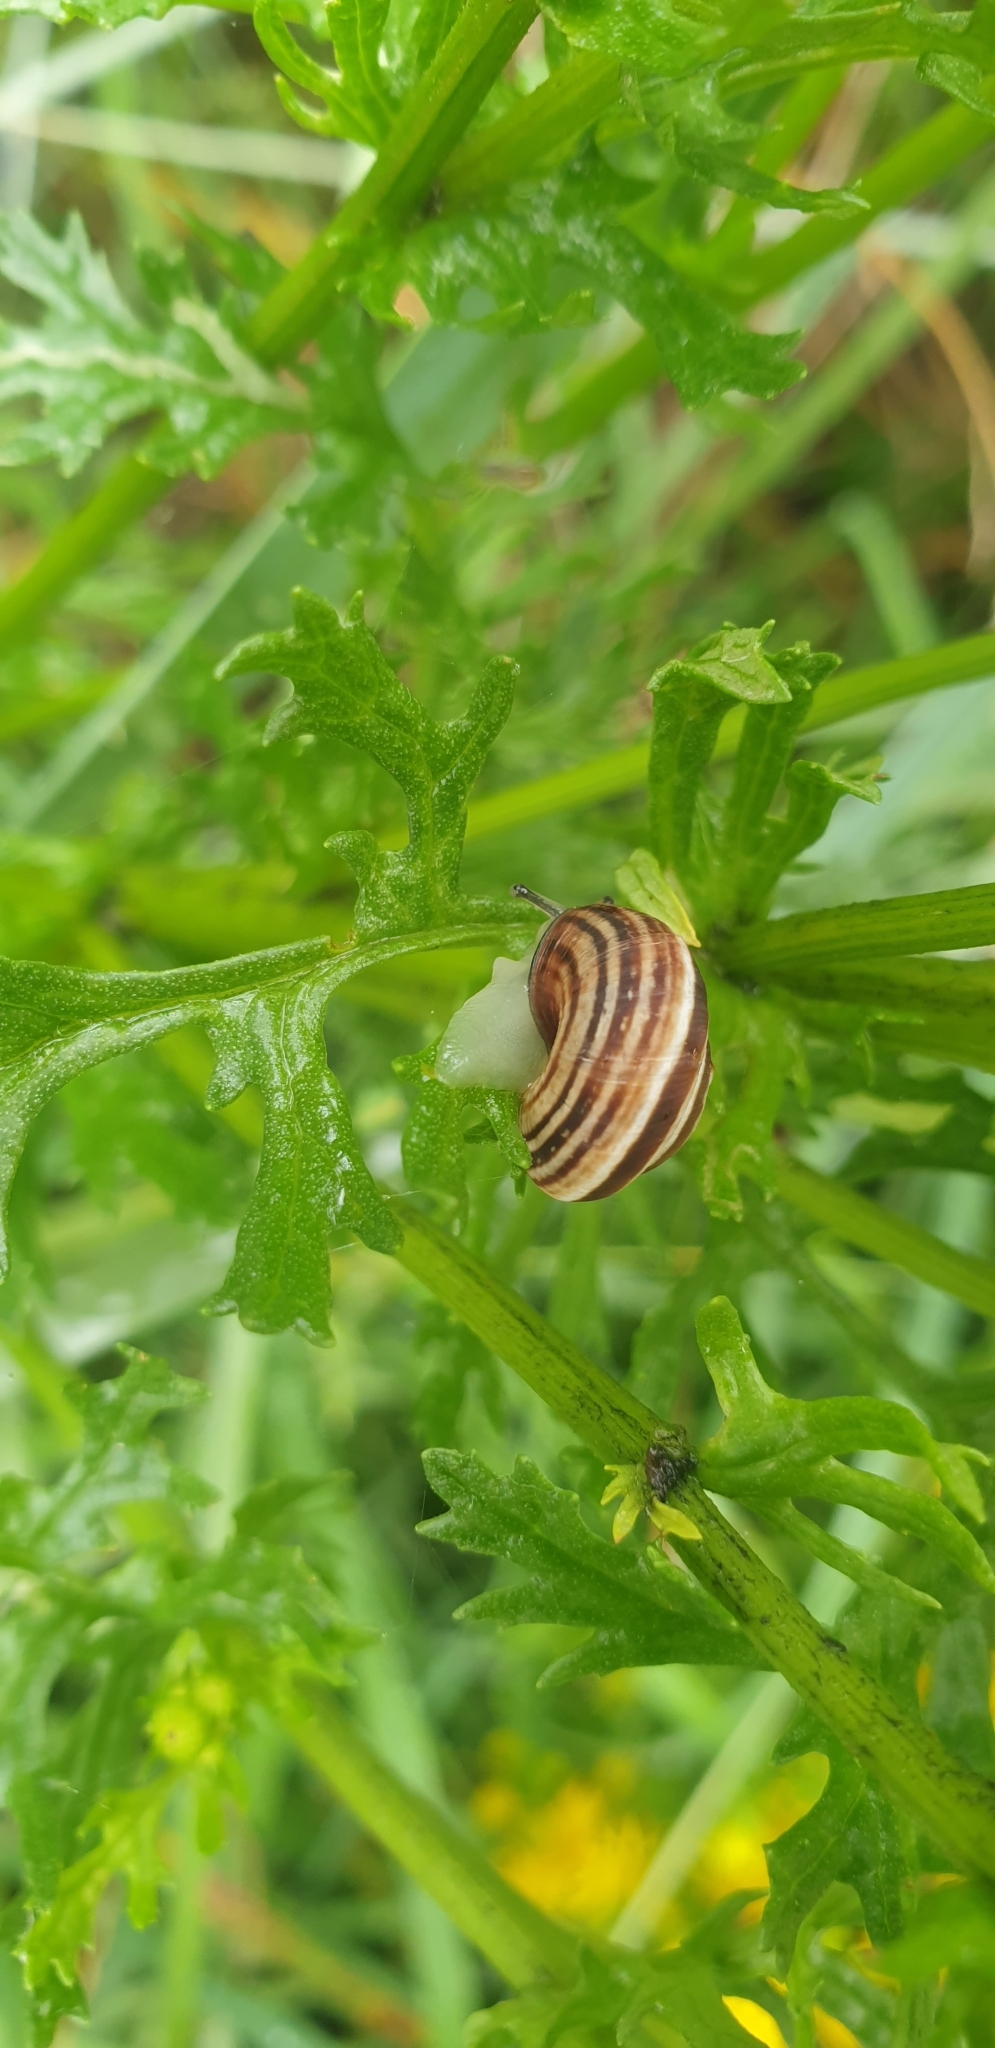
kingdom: Animalia
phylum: Mollusca
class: Gastropoda
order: Stylommatophora
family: Geomitridae
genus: Cernuella
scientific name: Cernuella virgata
